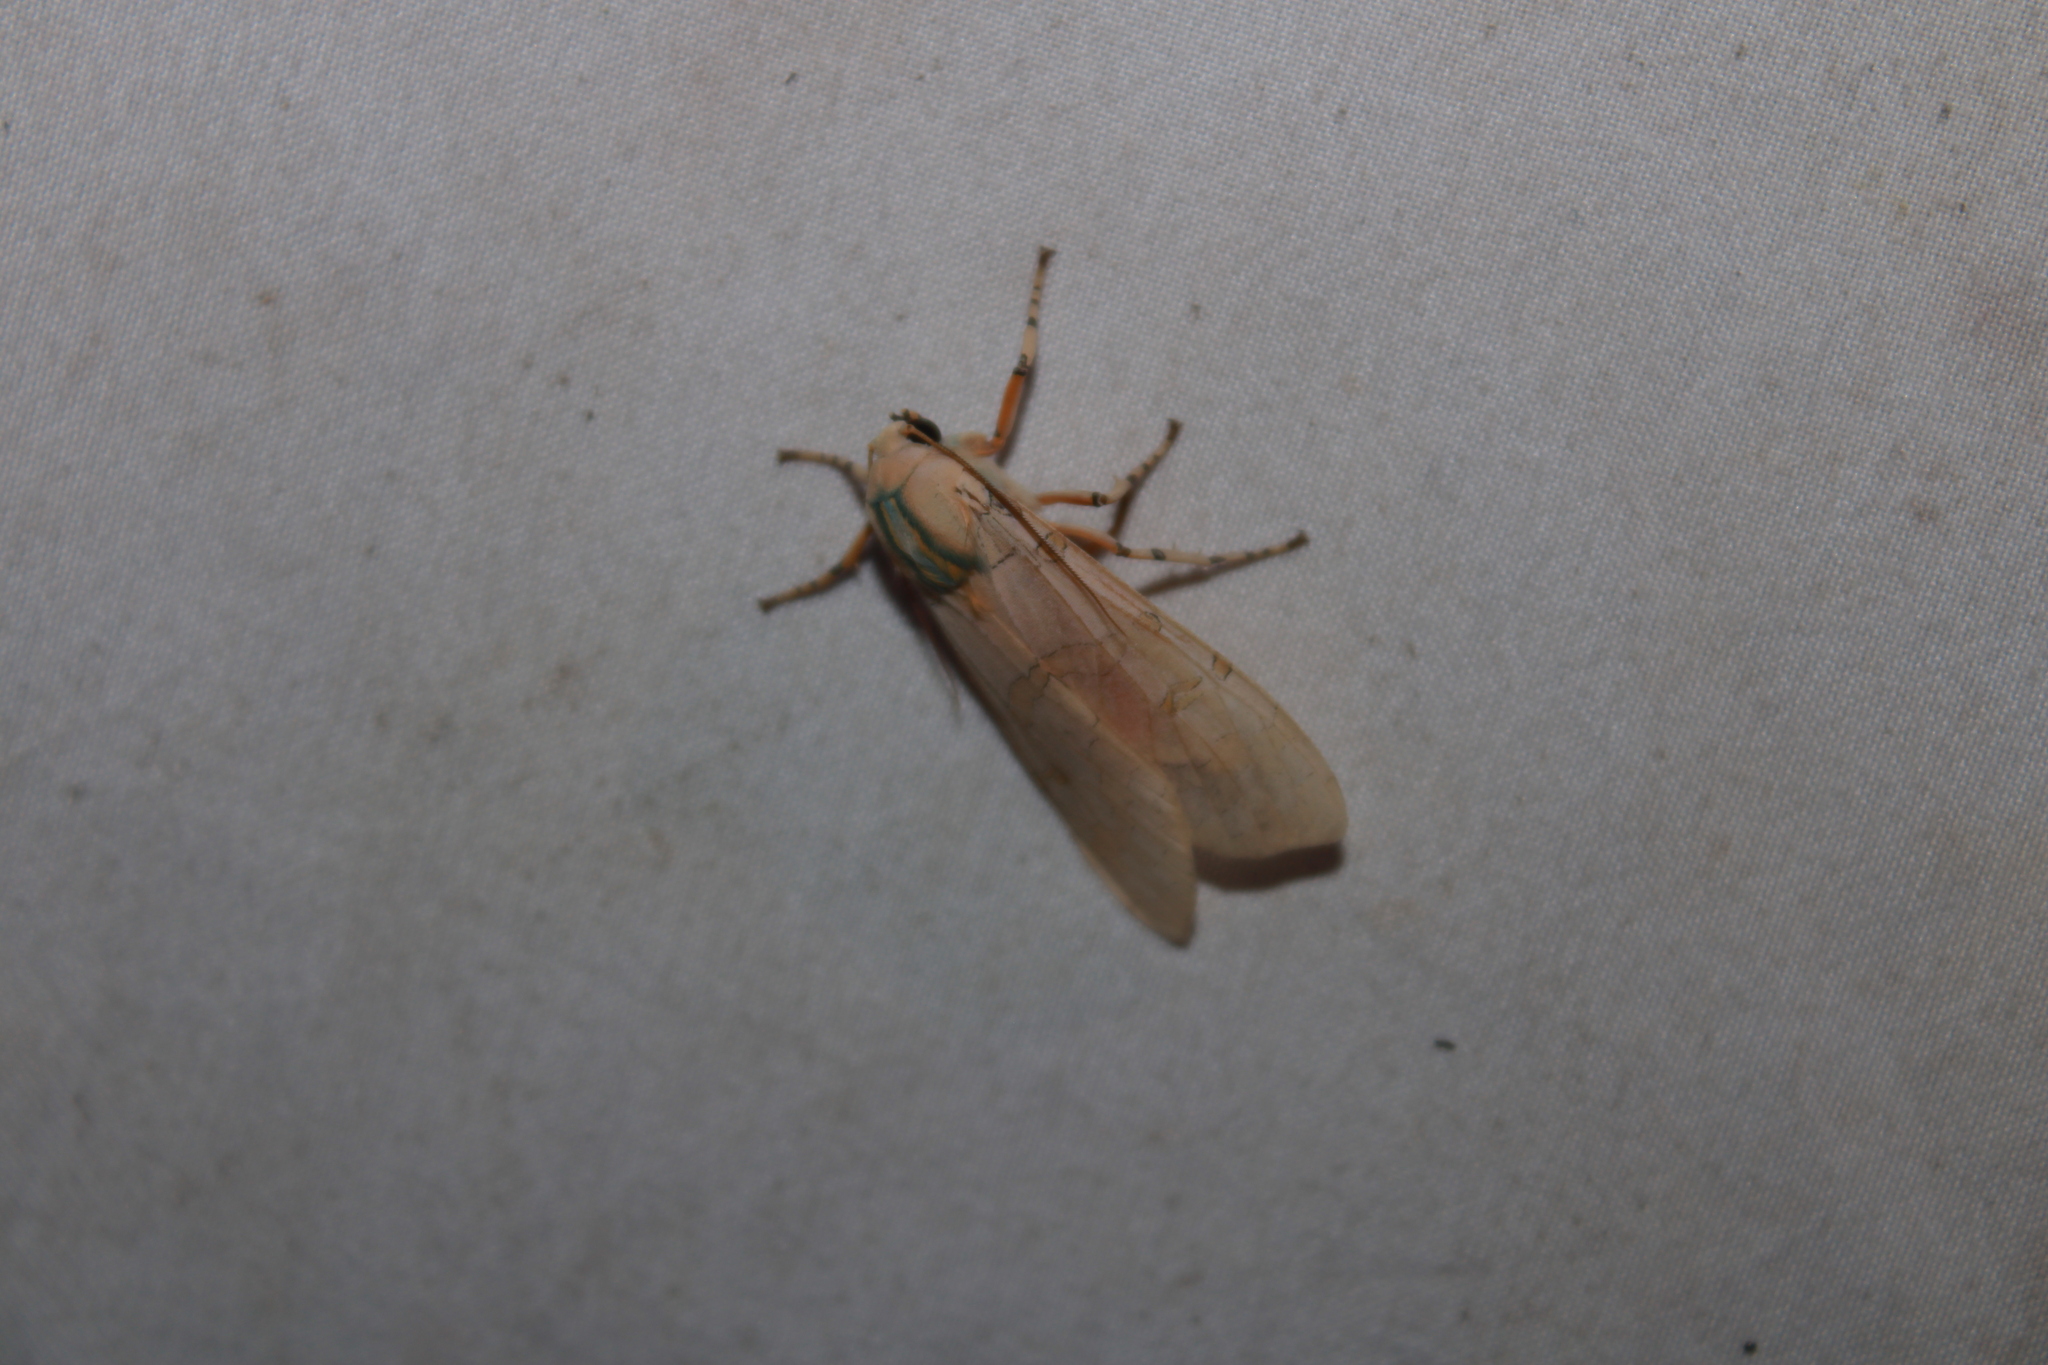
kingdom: Animalia
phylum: Arthropoda
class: Insecta
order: Lepidoptera
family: Erebidae
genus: Halysidota
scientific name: Halysidota cinctipes
